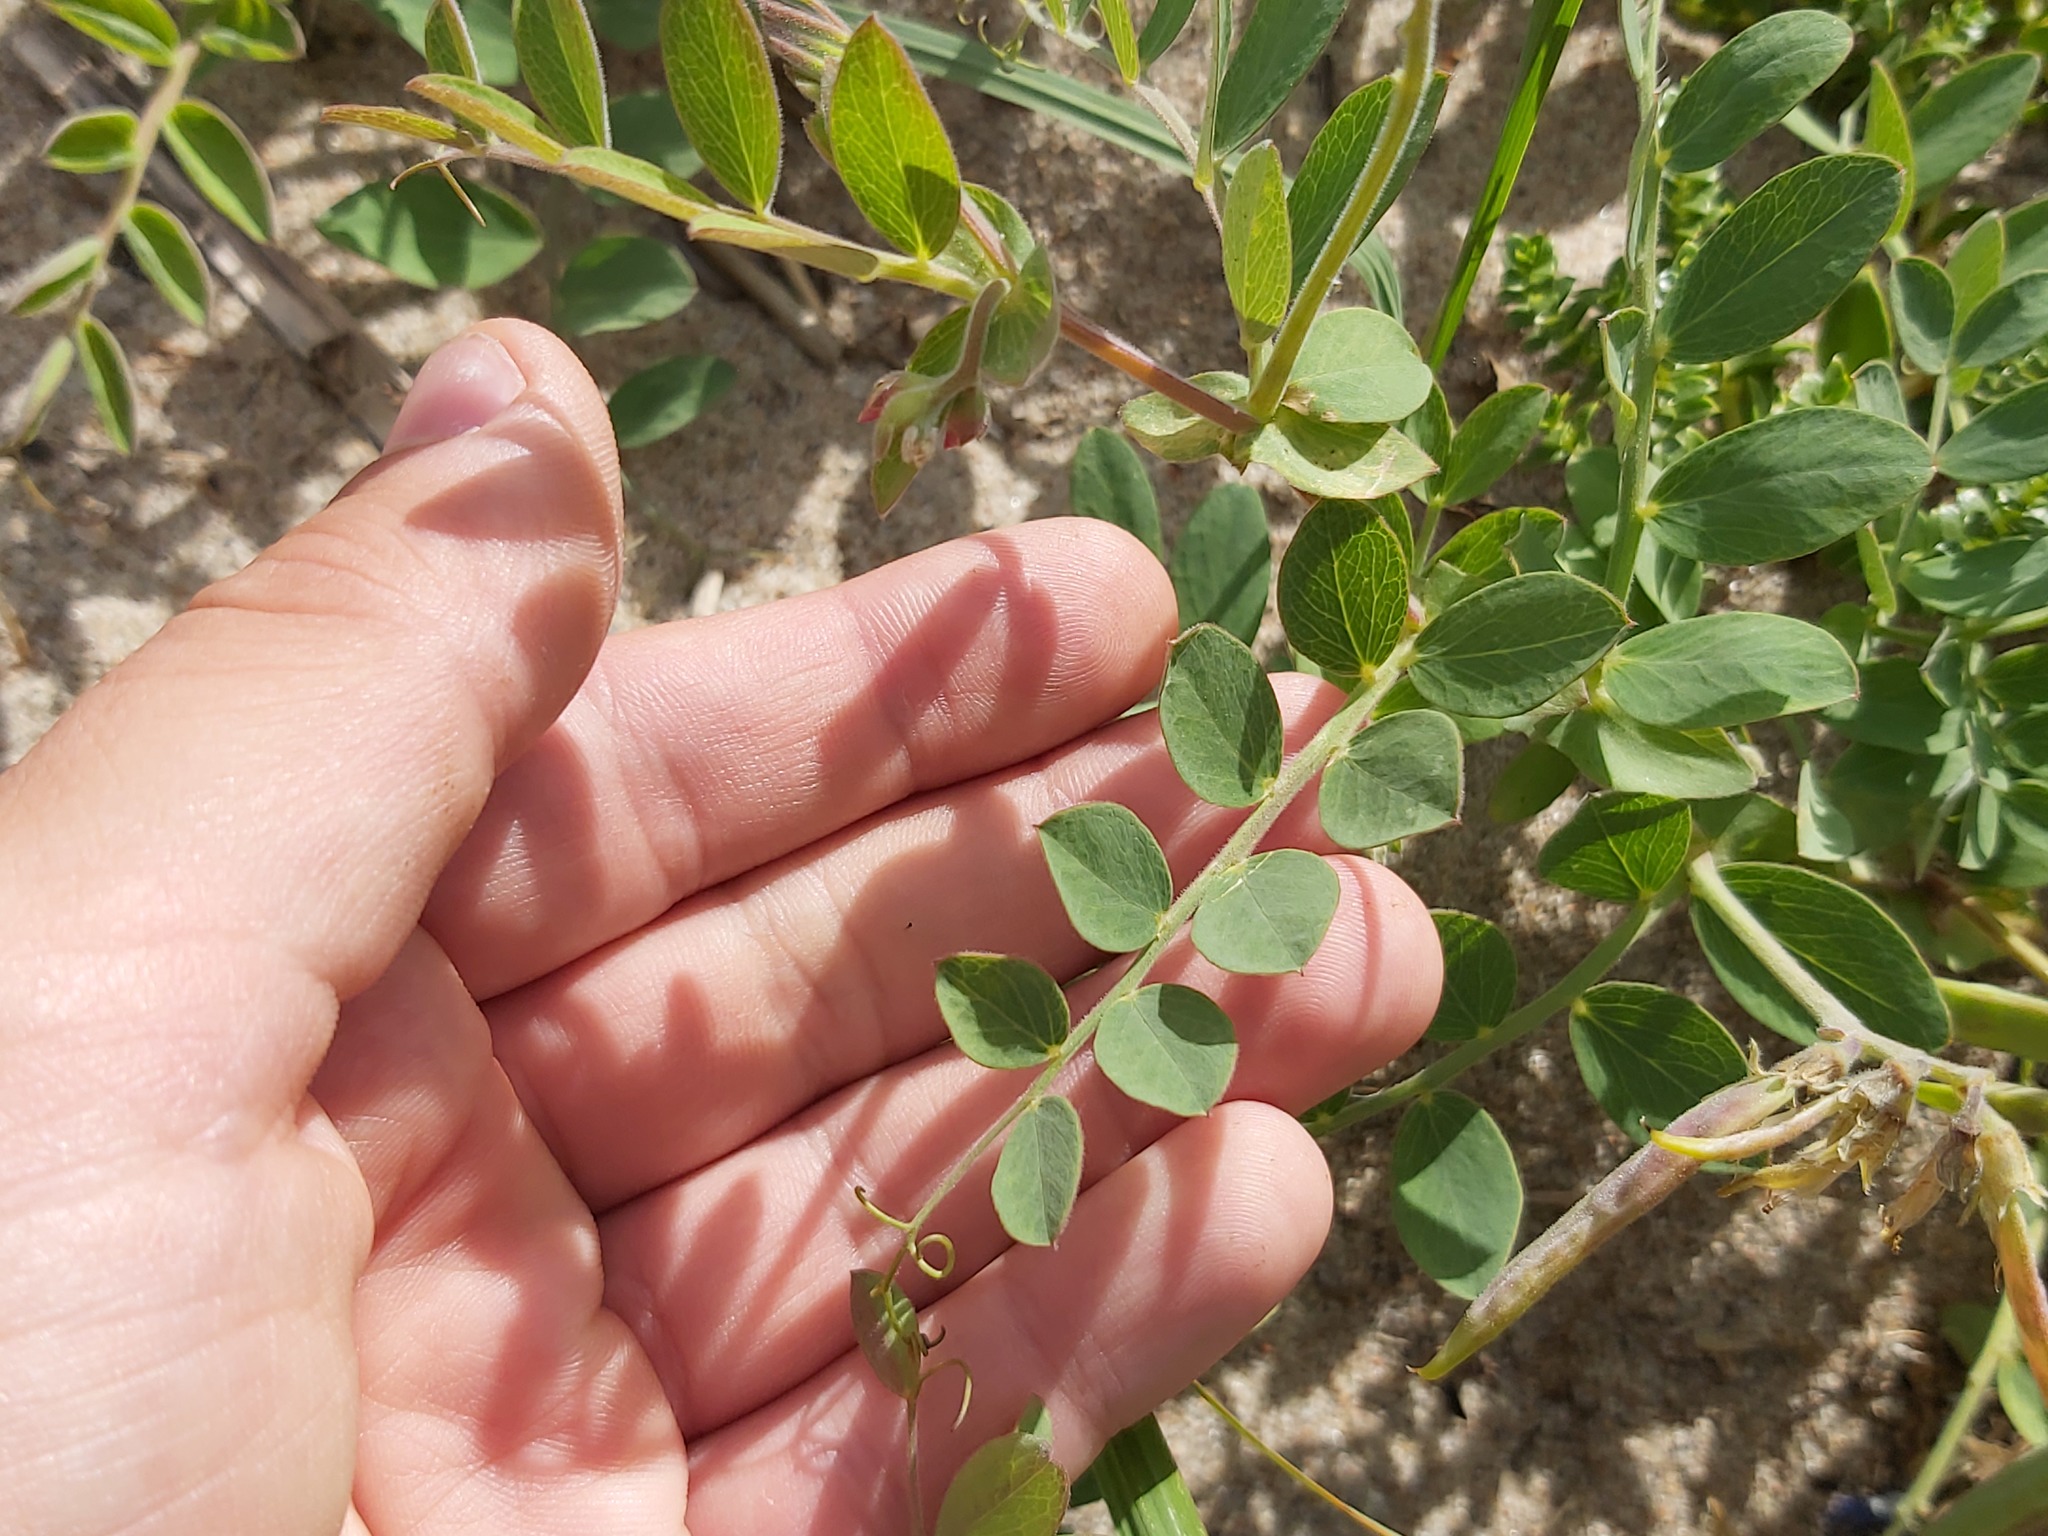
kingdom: Plantae
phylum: Tracheophyta
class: Magnoliopsida
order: Fabales
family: Fabaceae
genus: Lathyrus
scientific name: Lathyrus japonicus
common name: Sea pea
